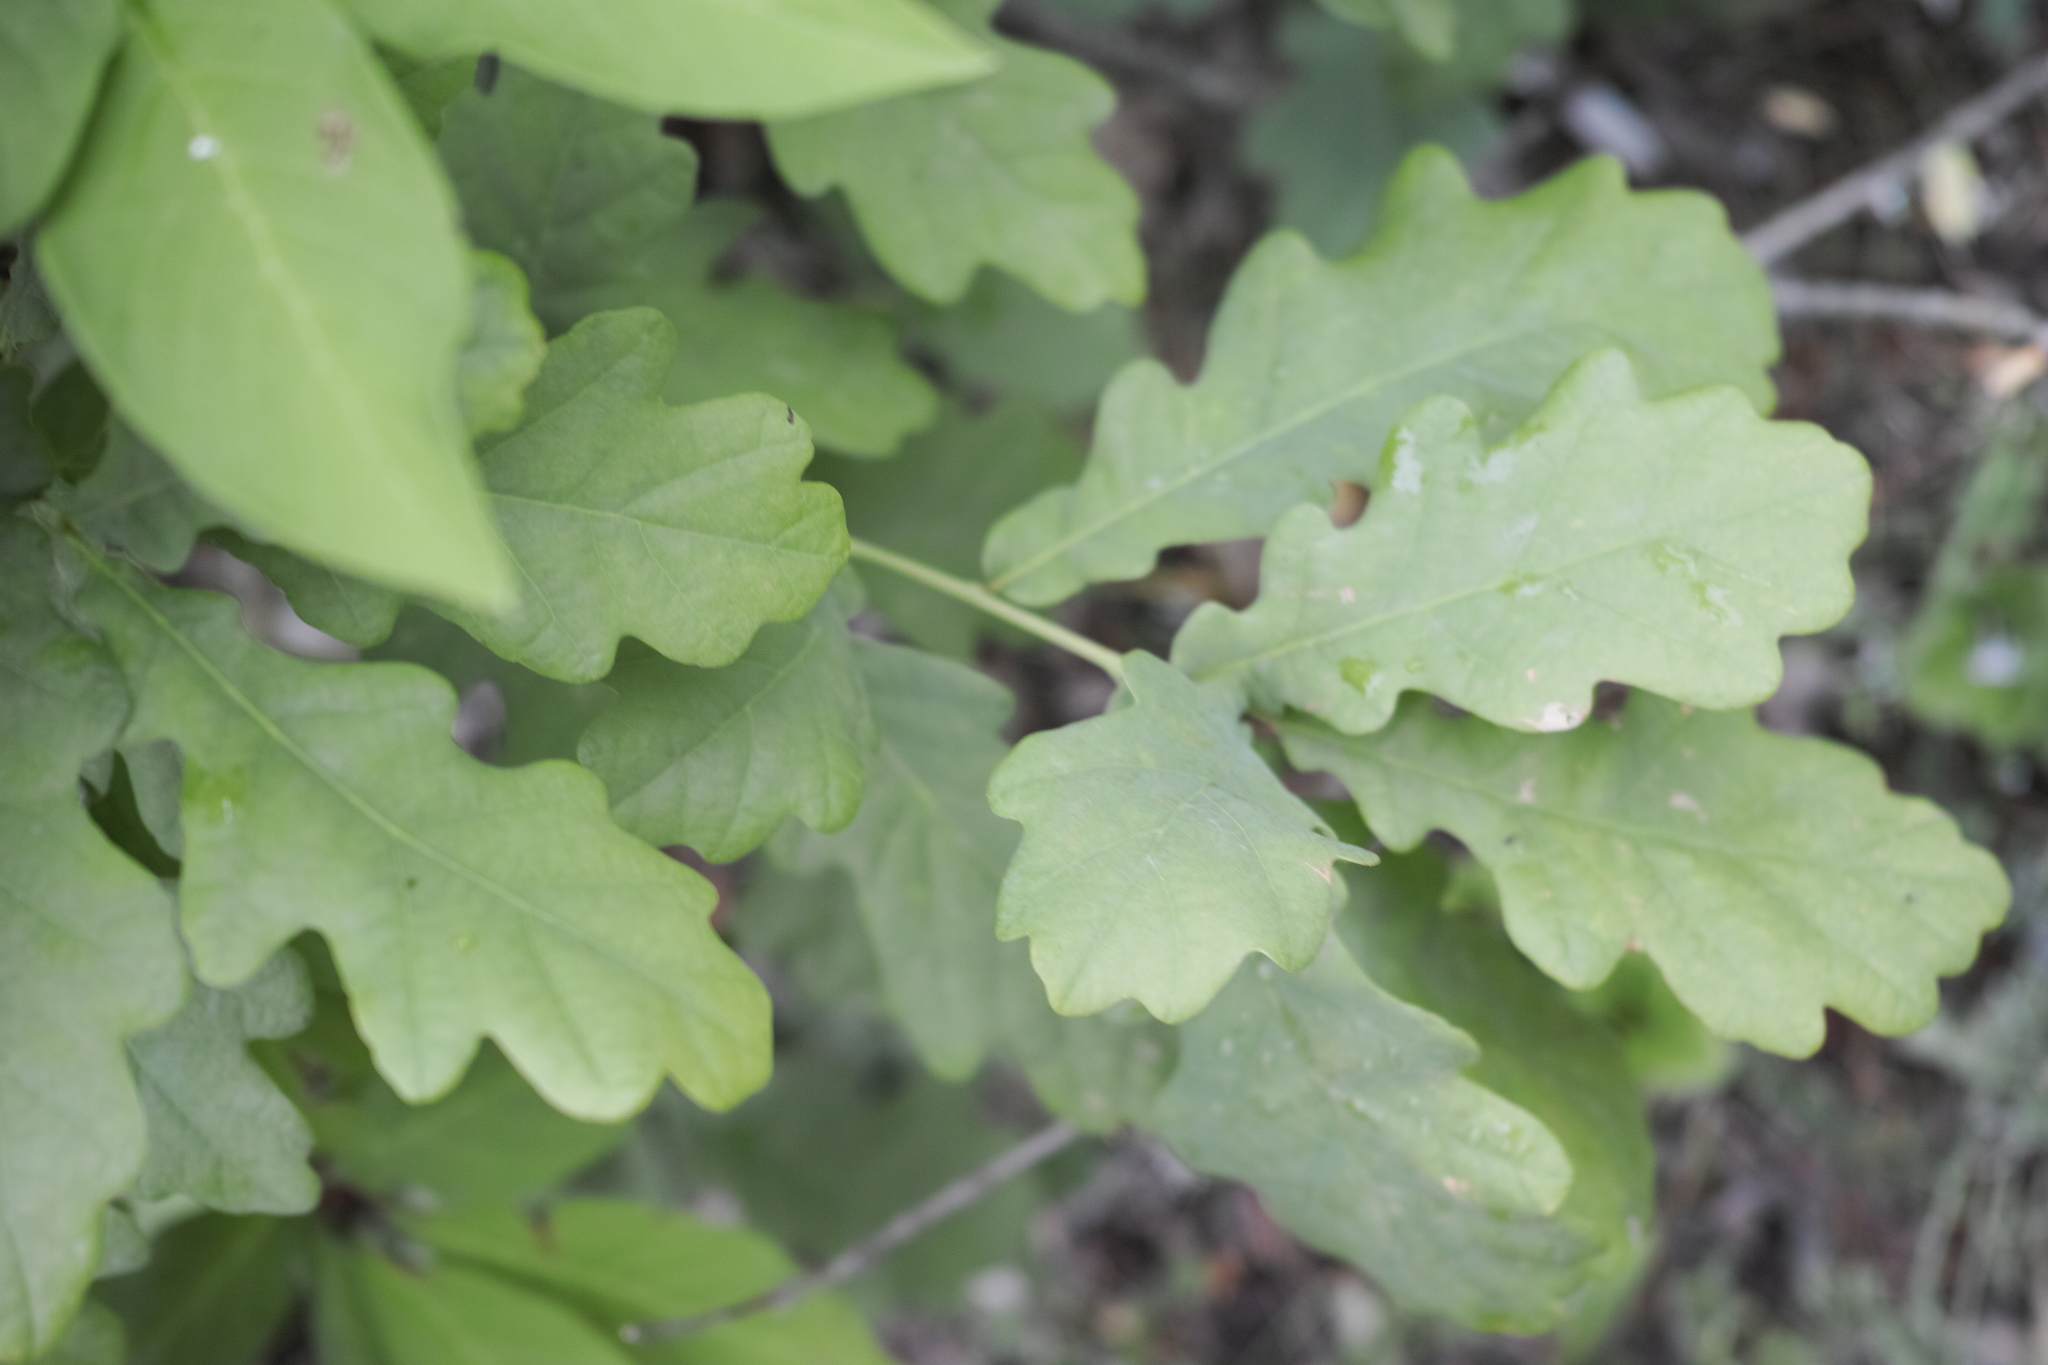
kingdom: Plantae
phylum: Tracheophyta
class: Magnoliopsida
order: Fagales
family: Fagaceae
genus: Quercus
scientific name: Quercus robur
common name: Pedunculate oak
